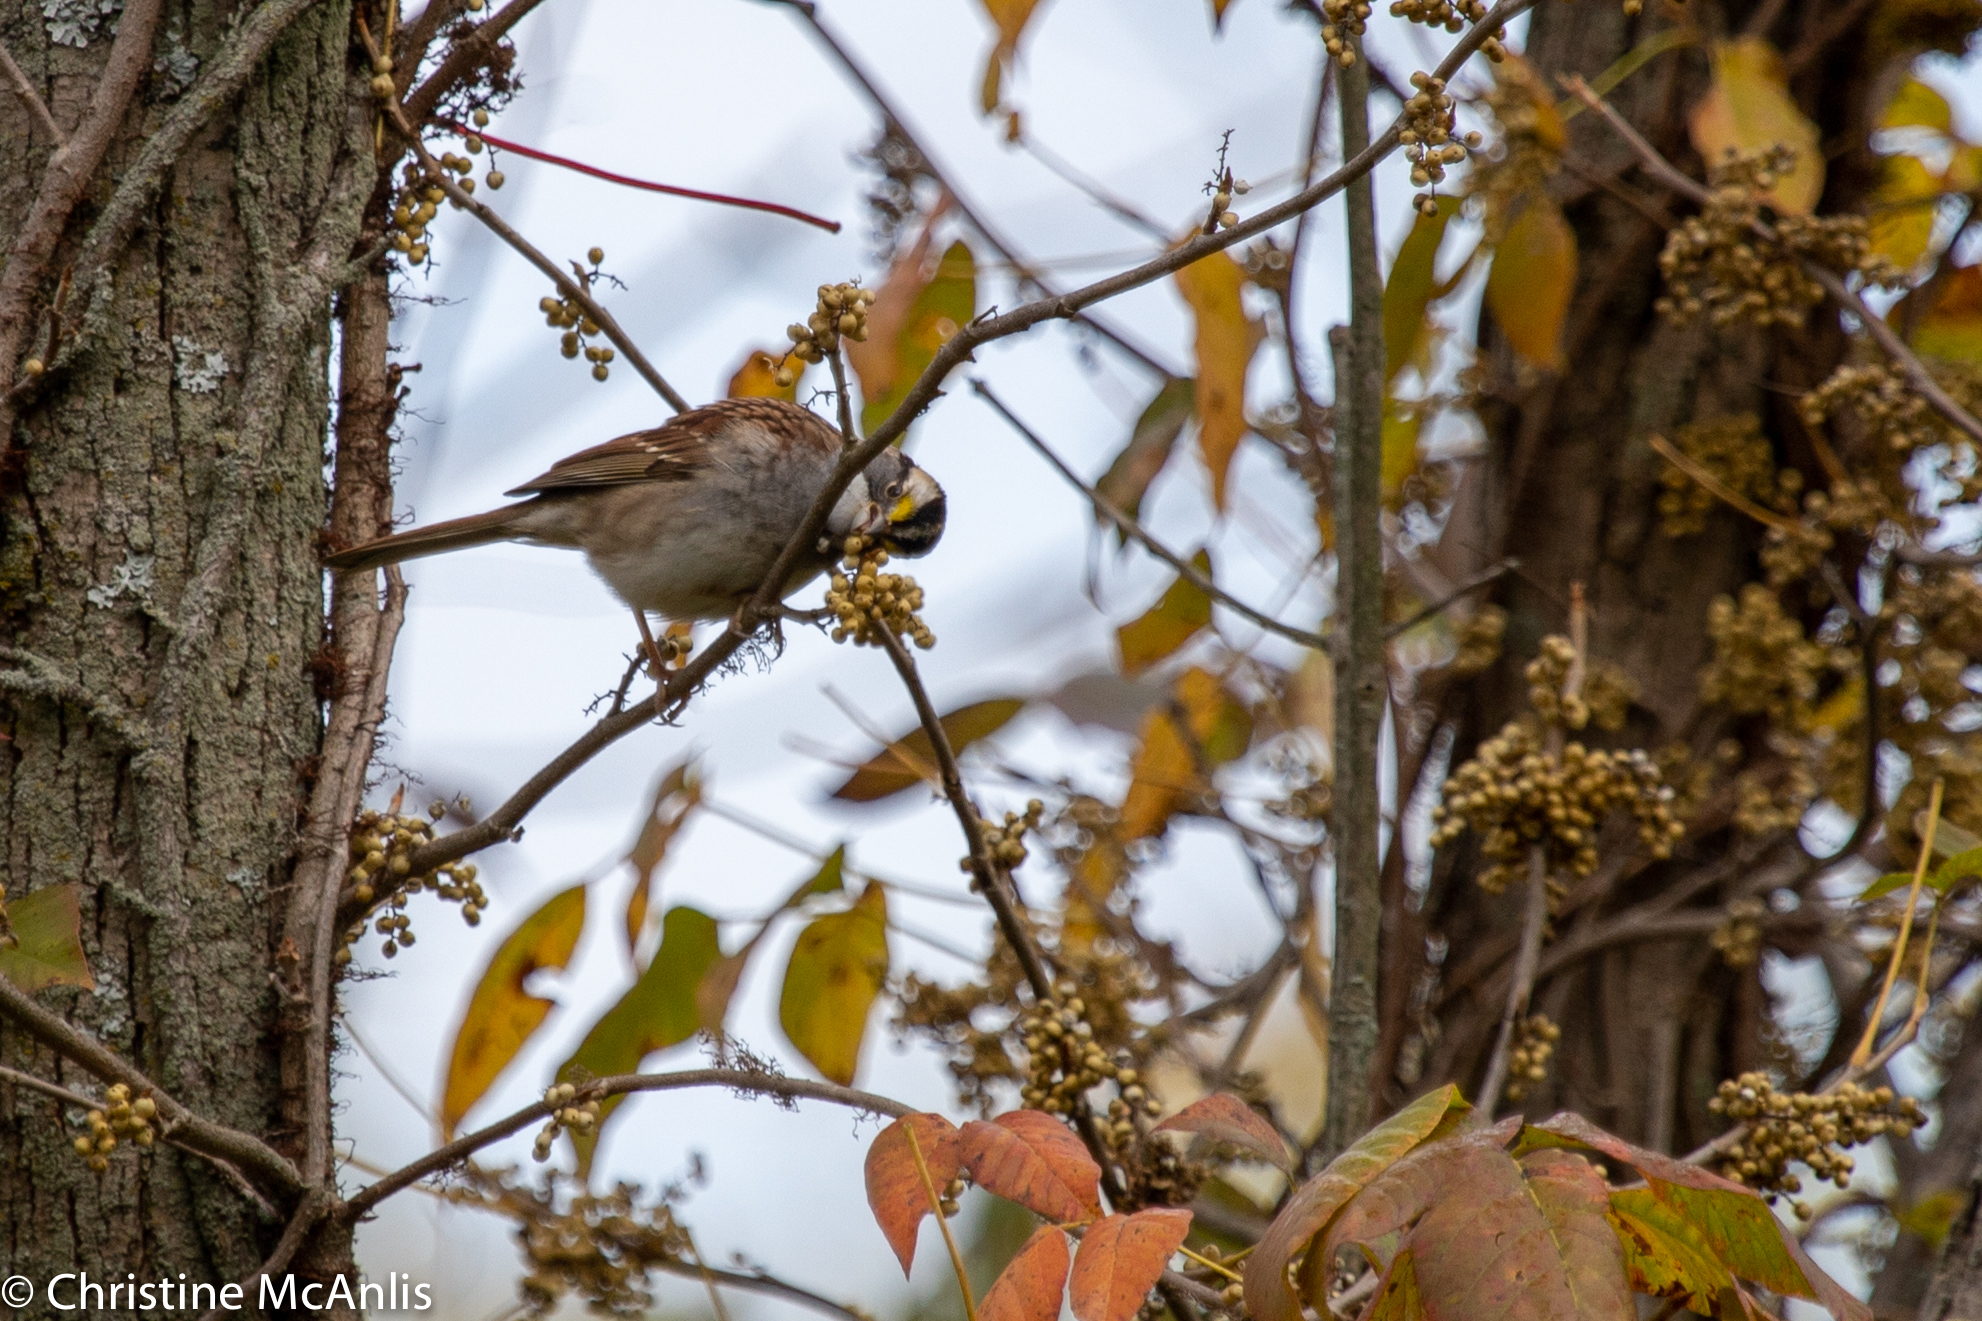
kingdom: Animalia
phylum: Chordata
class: Aves
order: Passeriformes
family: Passerellidae
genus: Zonotrichia
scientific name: Zonotrichia albicollis
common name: White-throated sparrow
